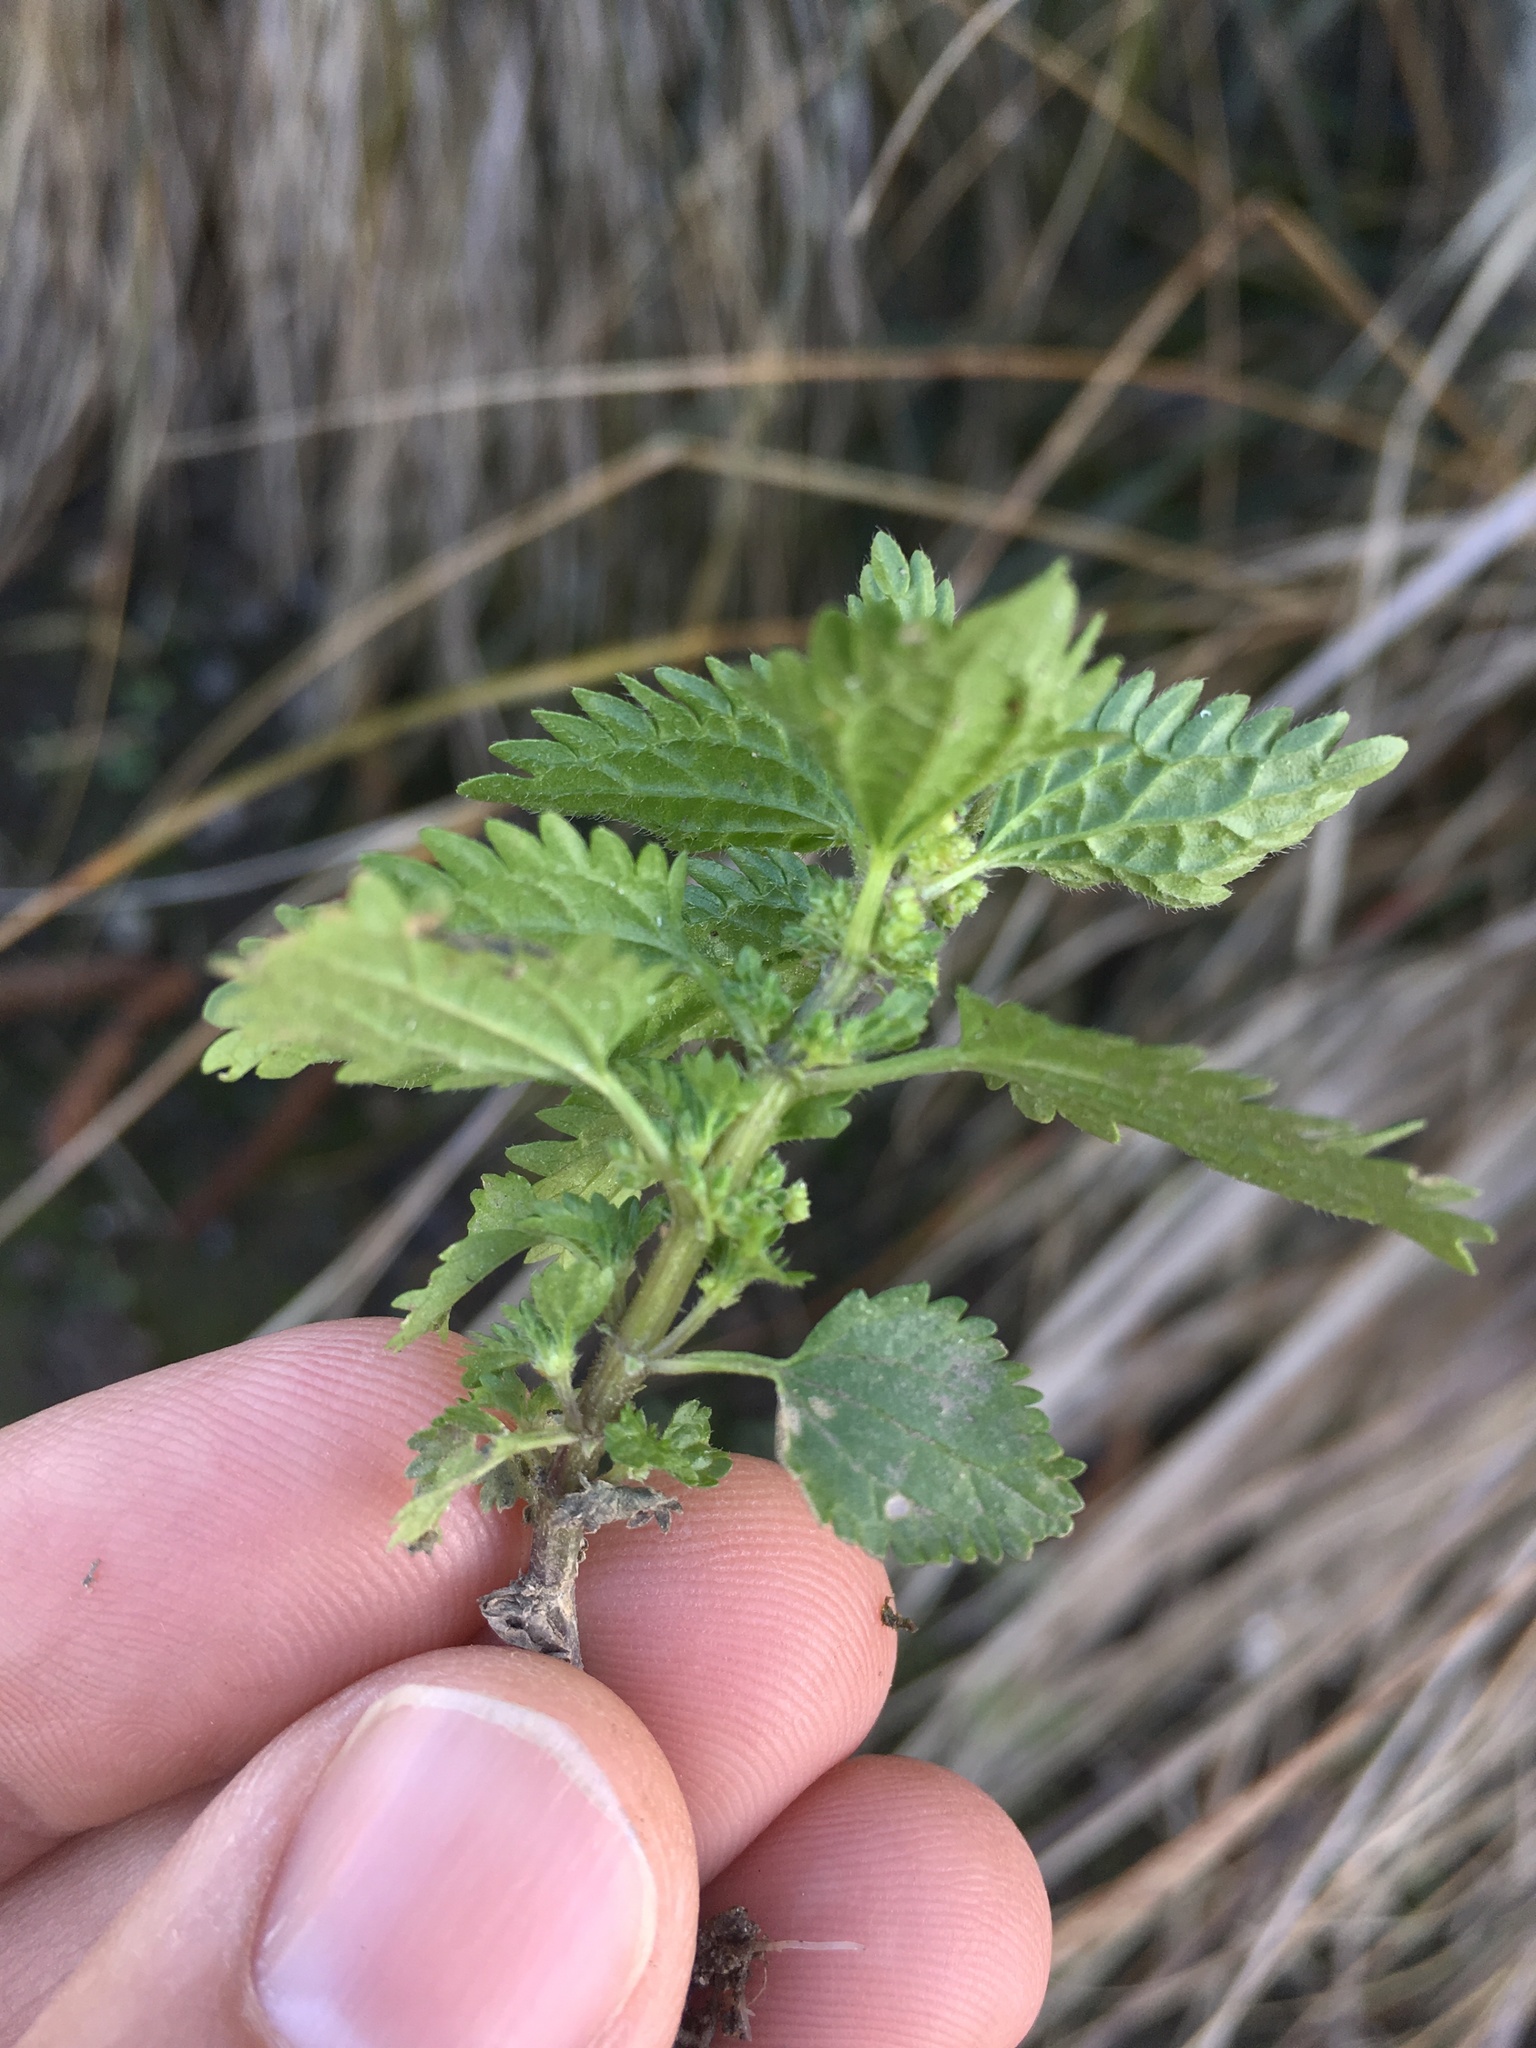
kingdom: Plantae
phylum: Tracheophyta
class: Magnoliopsida
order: Rosales
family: Urticaceae
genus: Urtica
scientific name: Urtica urens
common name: Dwarf nettle
